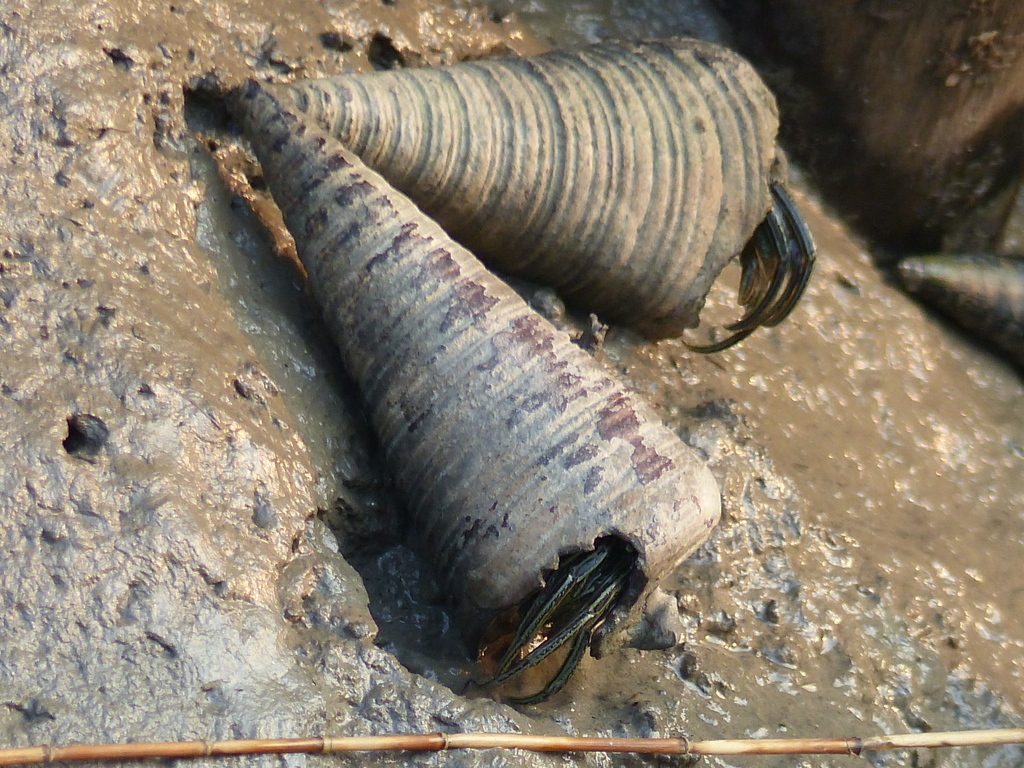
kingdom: Animalia
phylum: Arthropoda
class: Malacostraca
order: Decapoda
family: Diogenidae
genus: Clibanarius
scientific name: Clibanarius longitarsus
